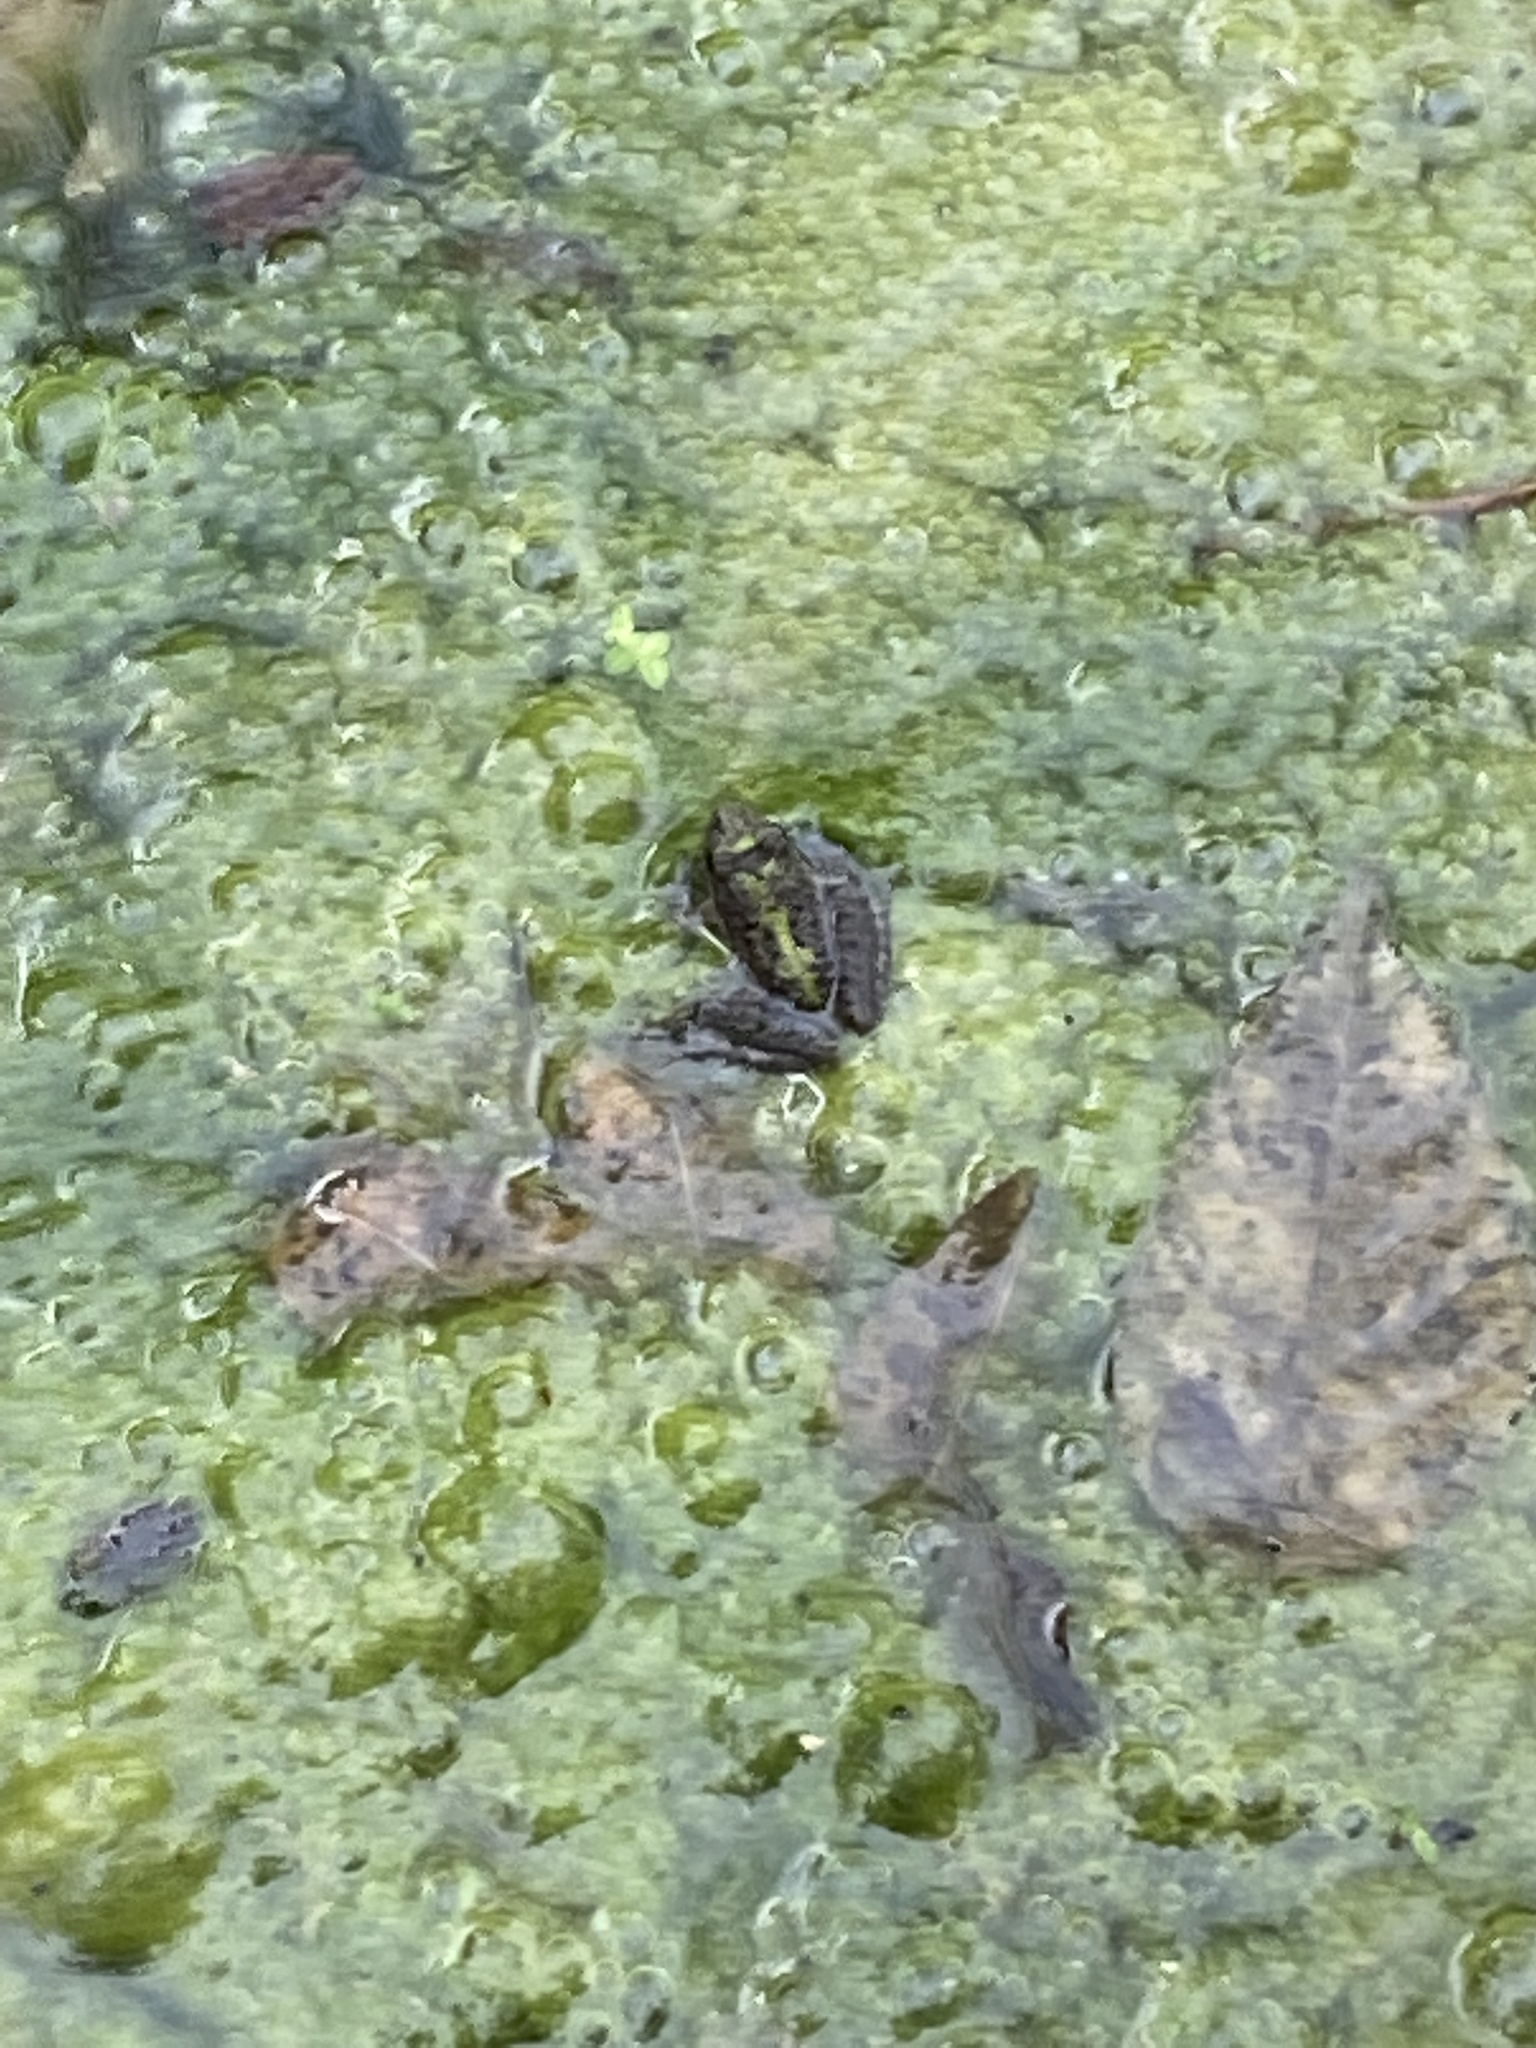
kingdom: Animalia
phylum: Chordata
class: Amphibia
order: Anura
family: Hylidae
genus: Acris
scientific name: Acris blanchardi
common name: Blanchard's cricket frog
